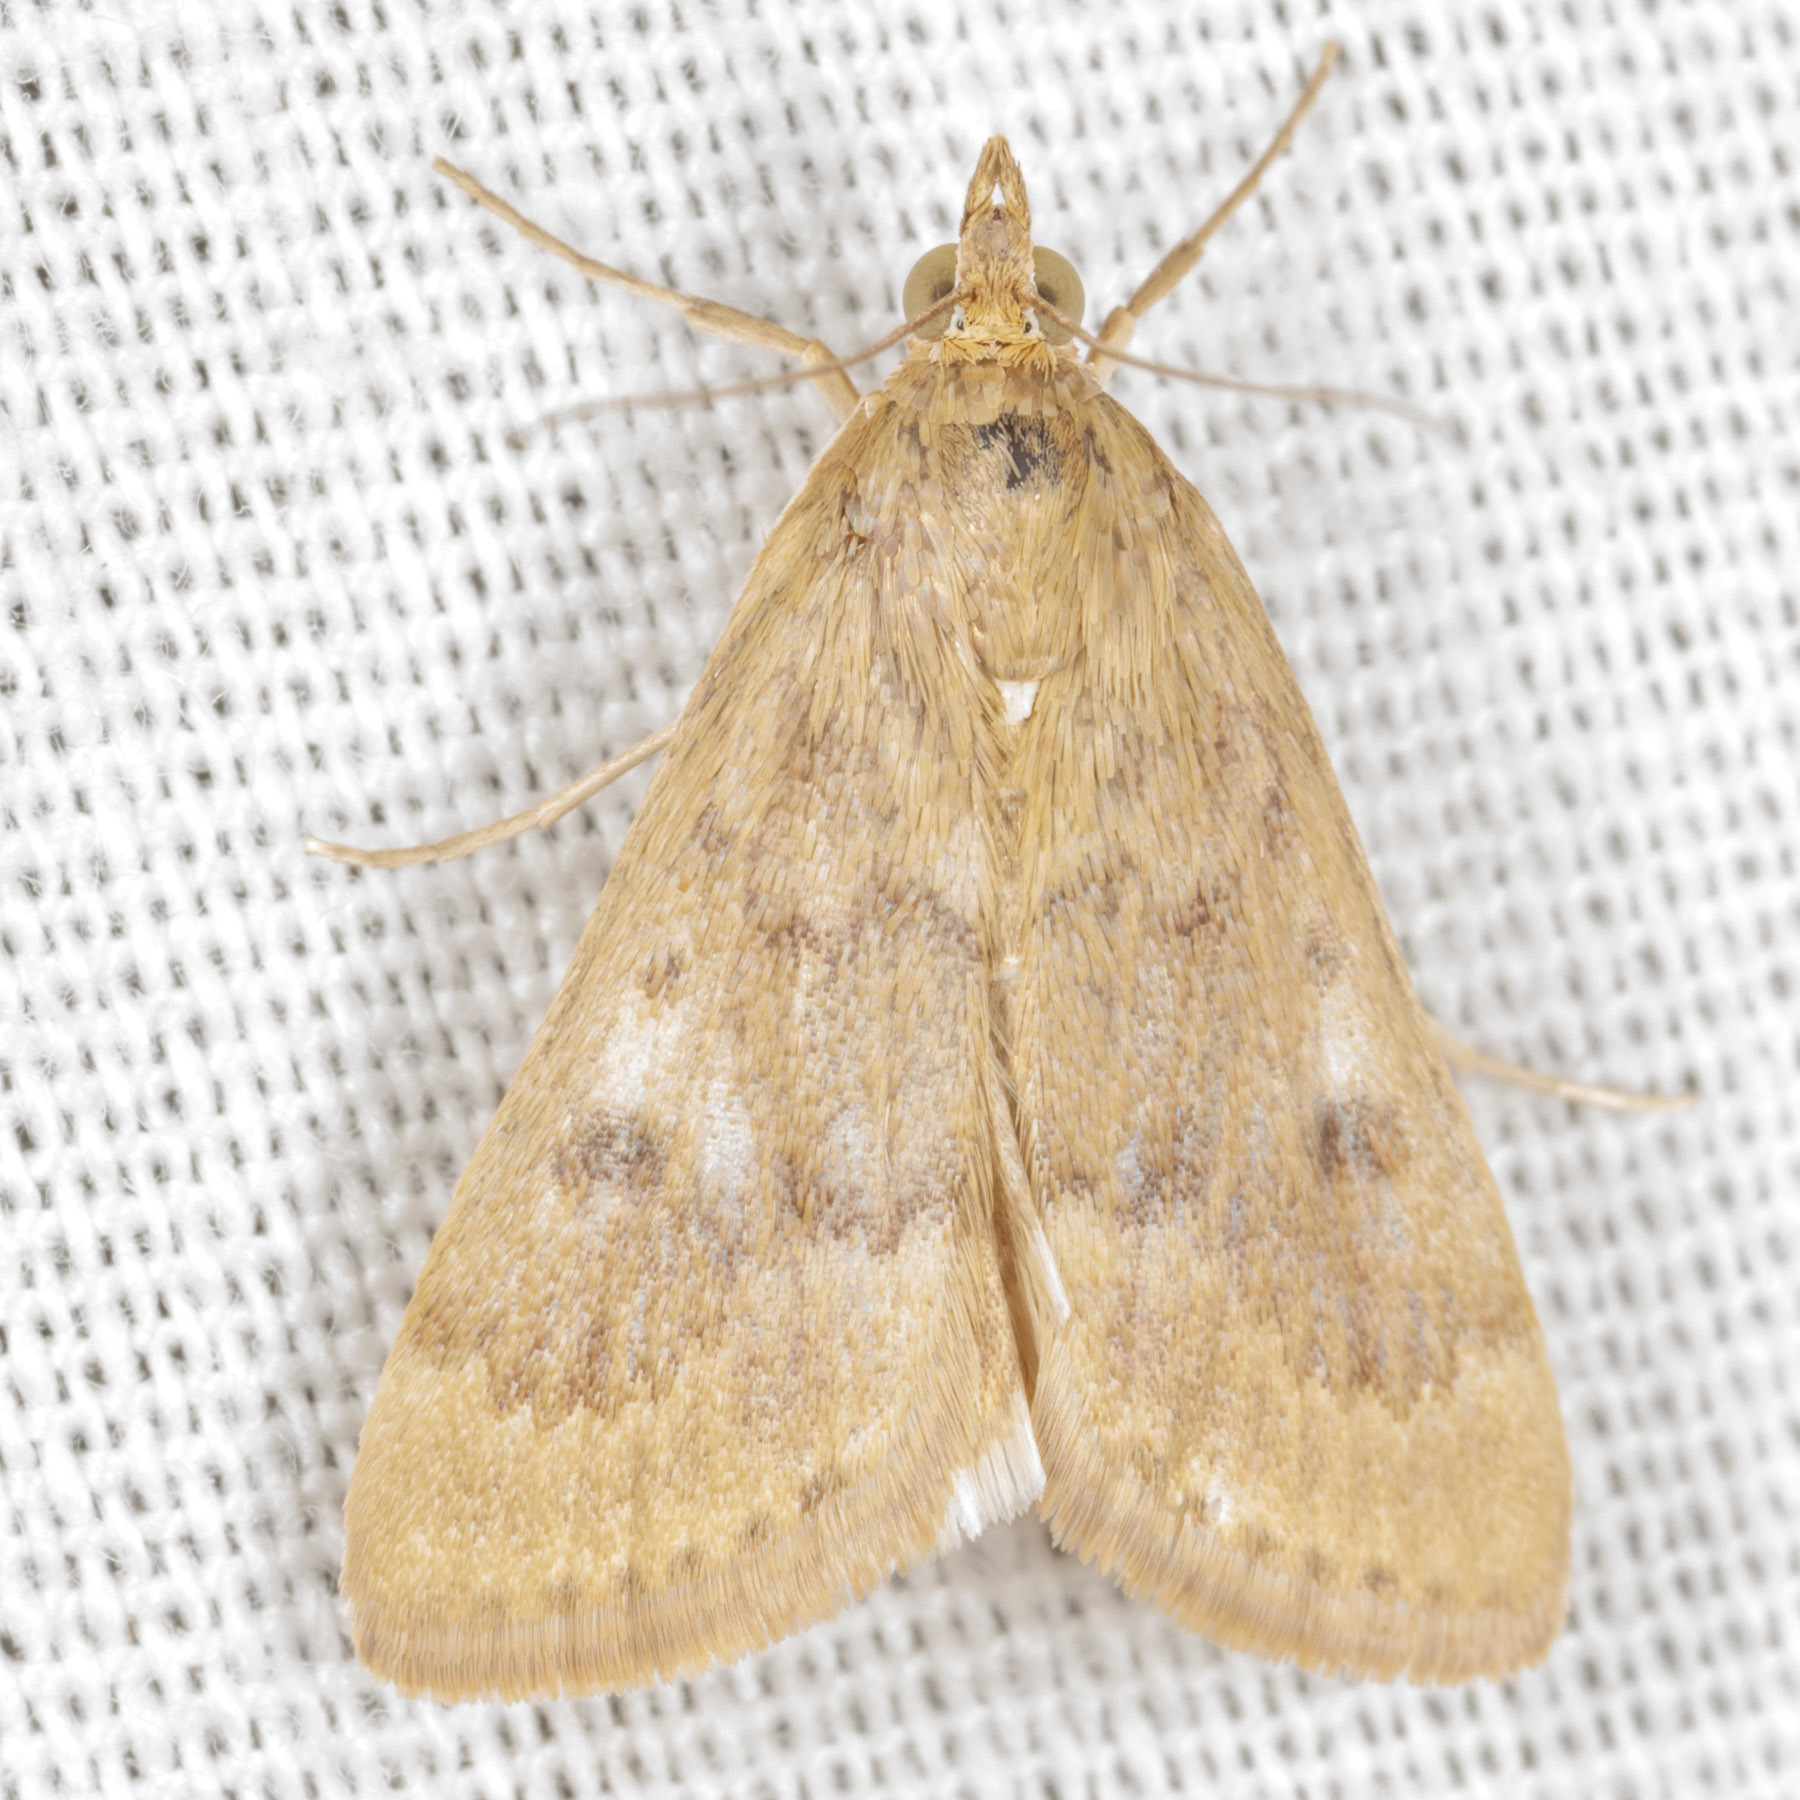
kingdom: Animalia
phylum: Arthropoda
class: Insecta
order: Lepidoptera
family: Crambidae
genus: Achyra
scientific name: Achyra rantalis
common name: Garden webworm
